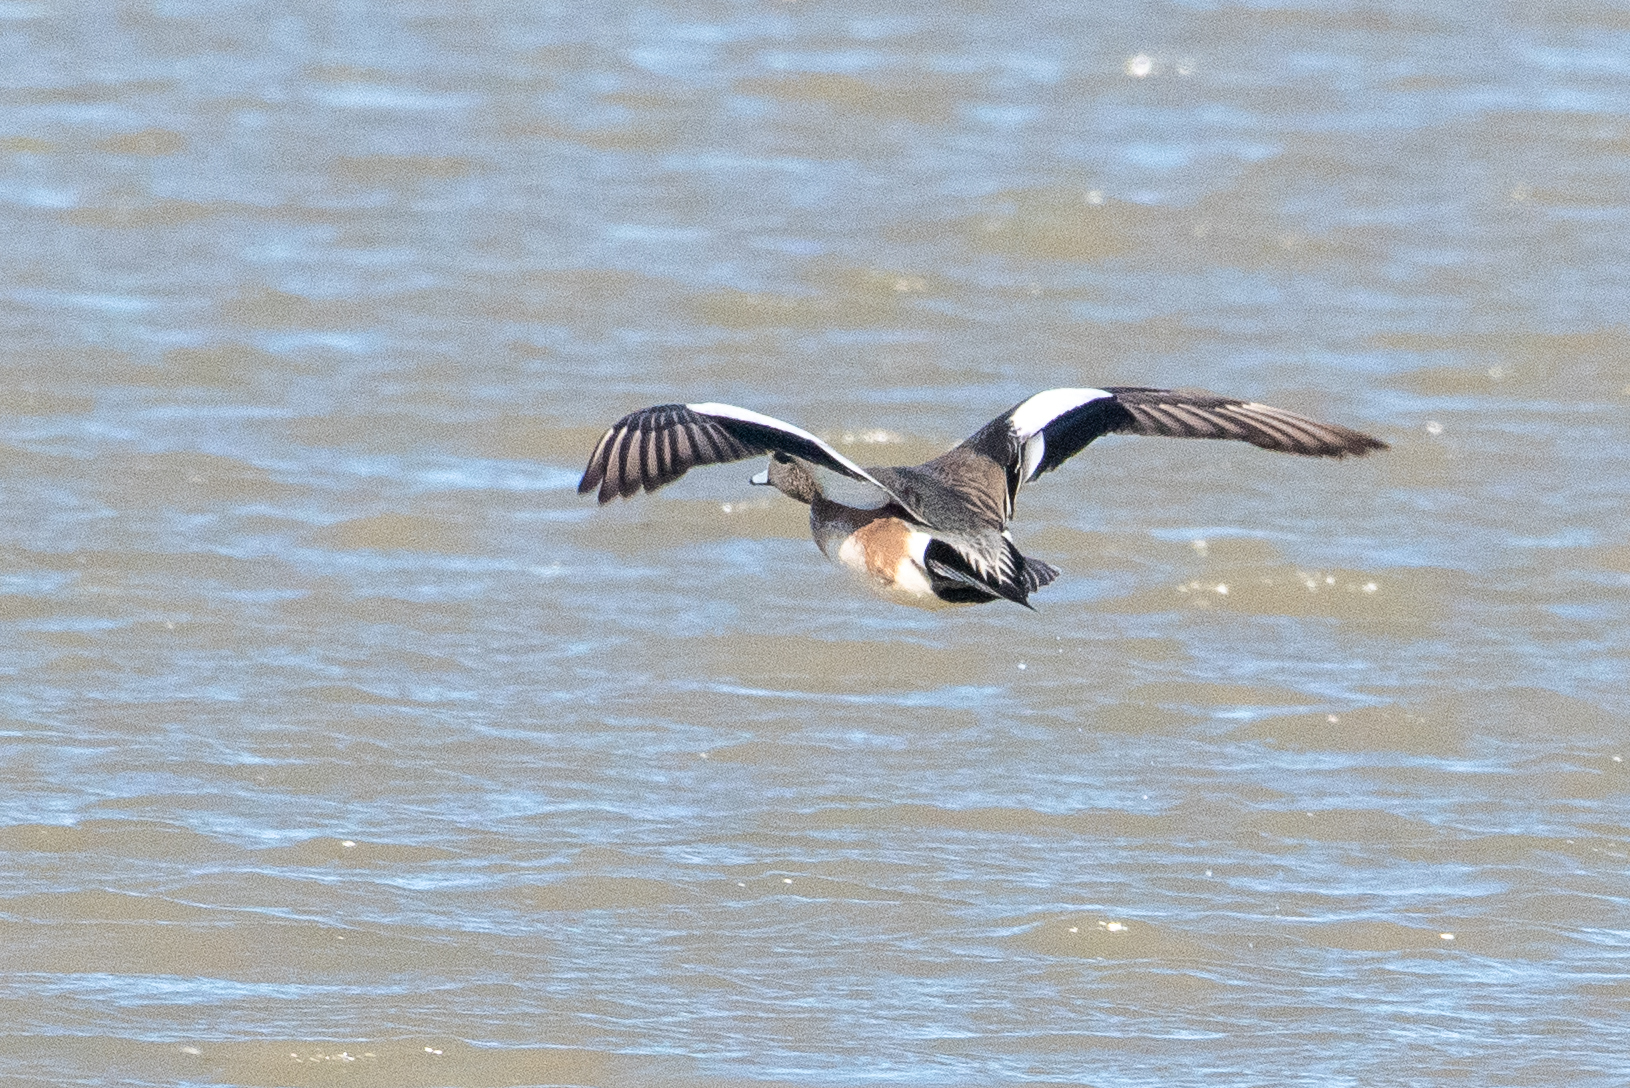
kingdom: Animalia
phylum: Chordata
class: Aves
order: Anseriformes
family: Anatidae
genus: Mareca
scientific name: Mareca americana
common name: American wigeon
